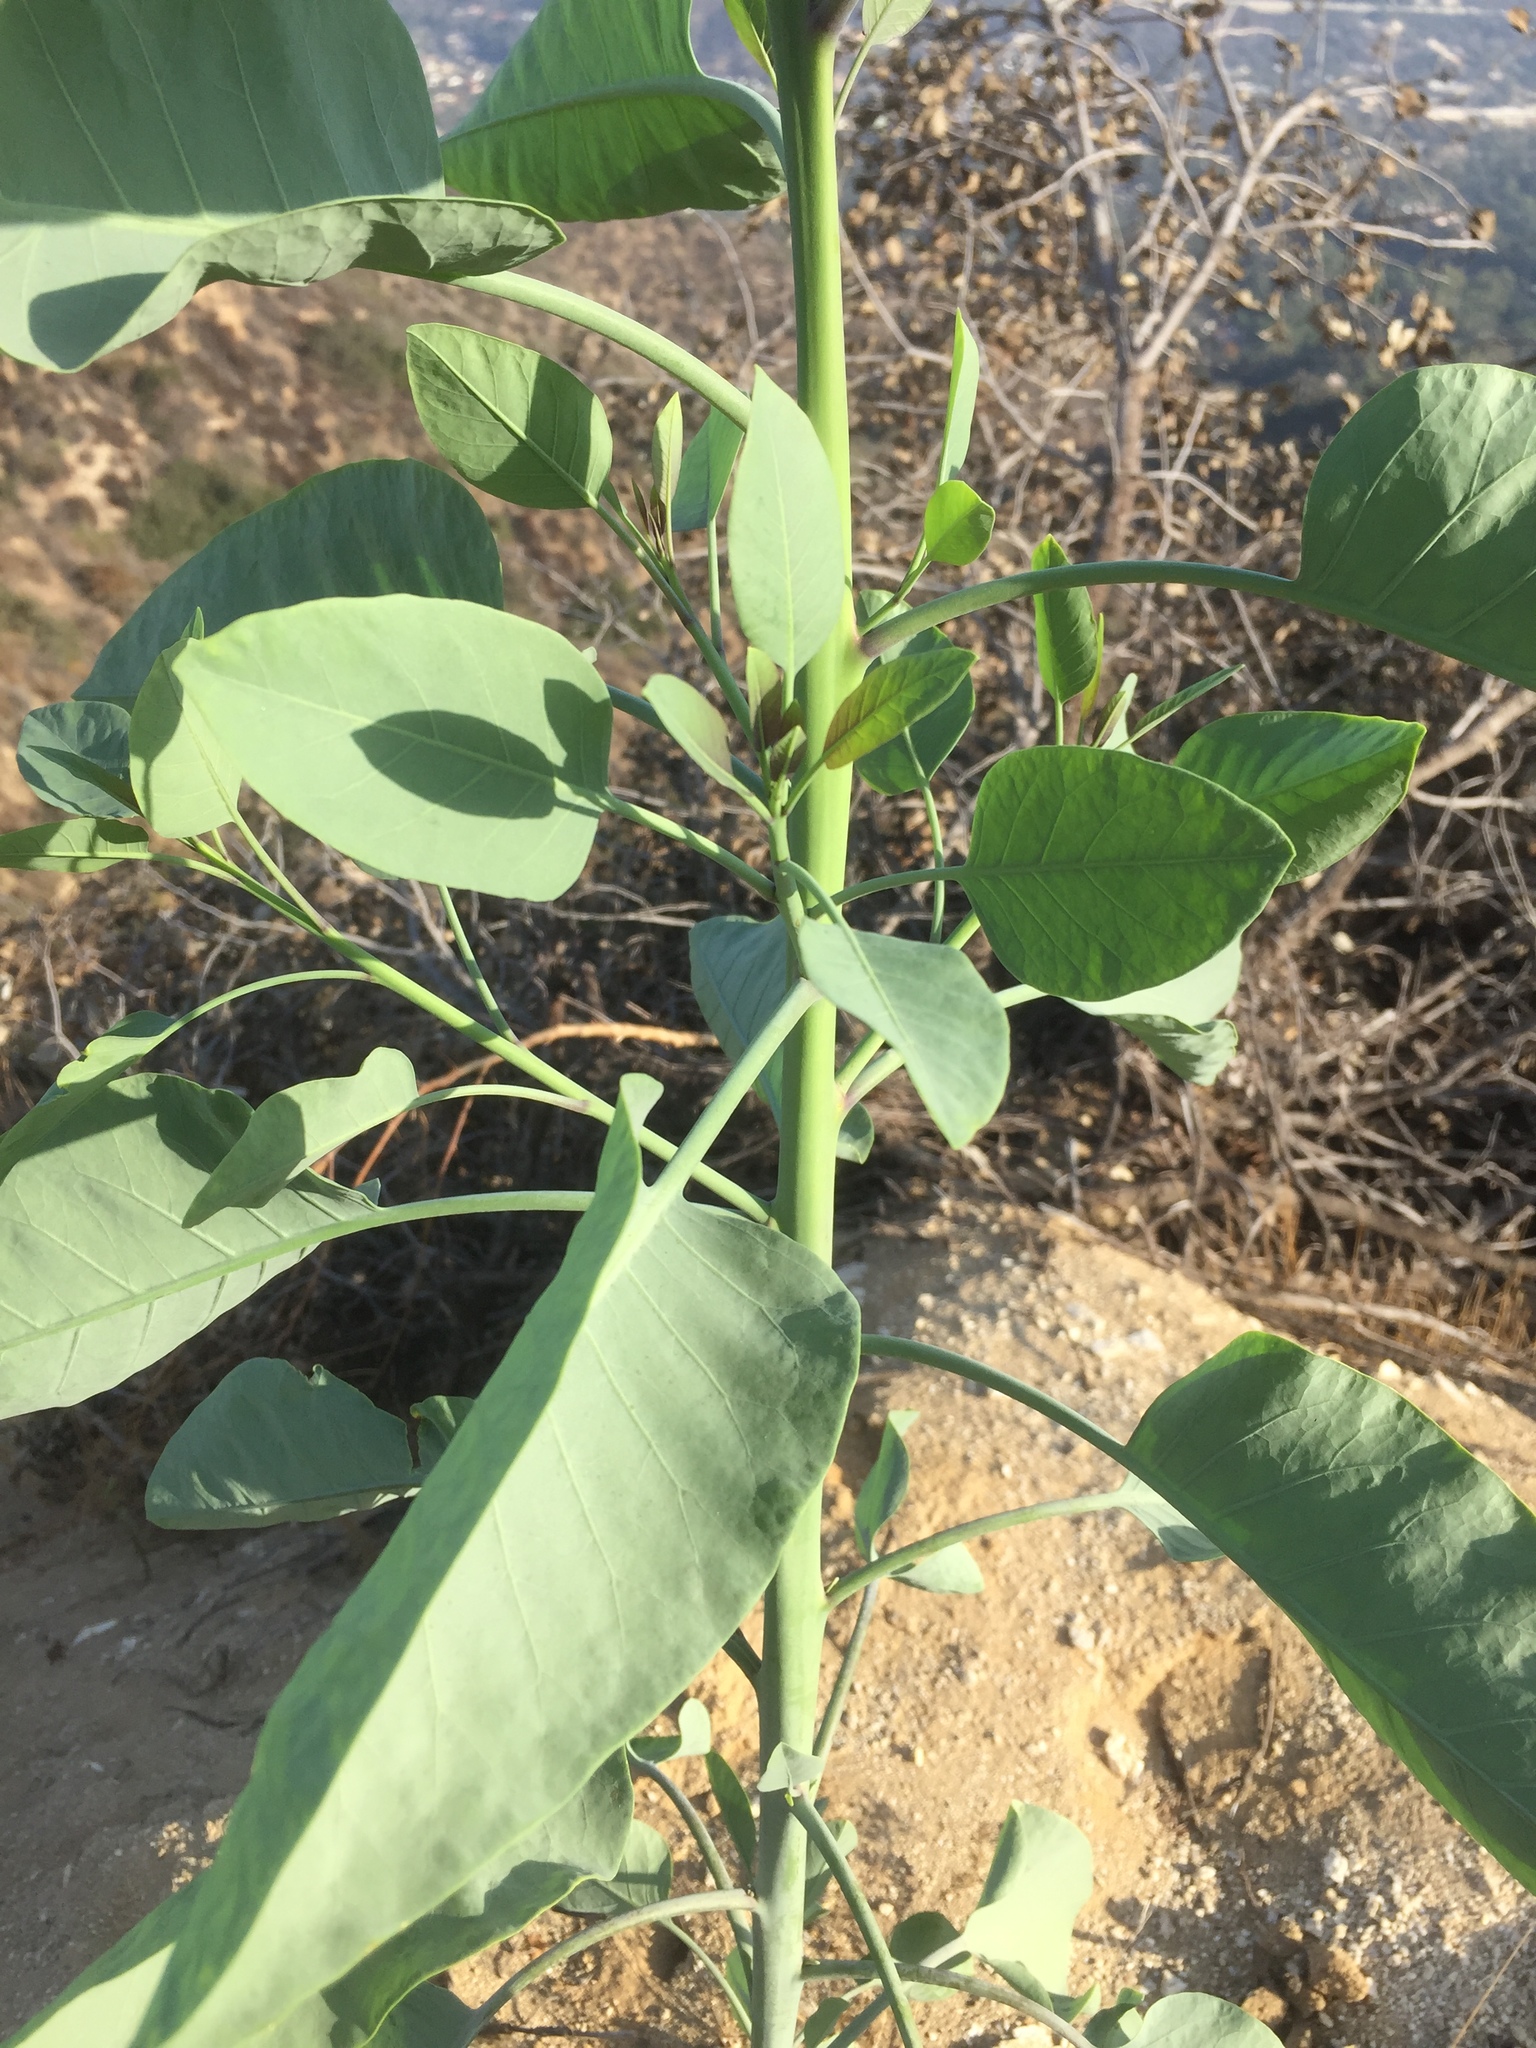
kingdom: Plantae
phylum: Tracheophyta
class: Magnoliopsida
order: Solanales
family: Solanaceae
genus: Nicotiana
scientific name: Nicotiana glauca
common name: Tree tobacco
